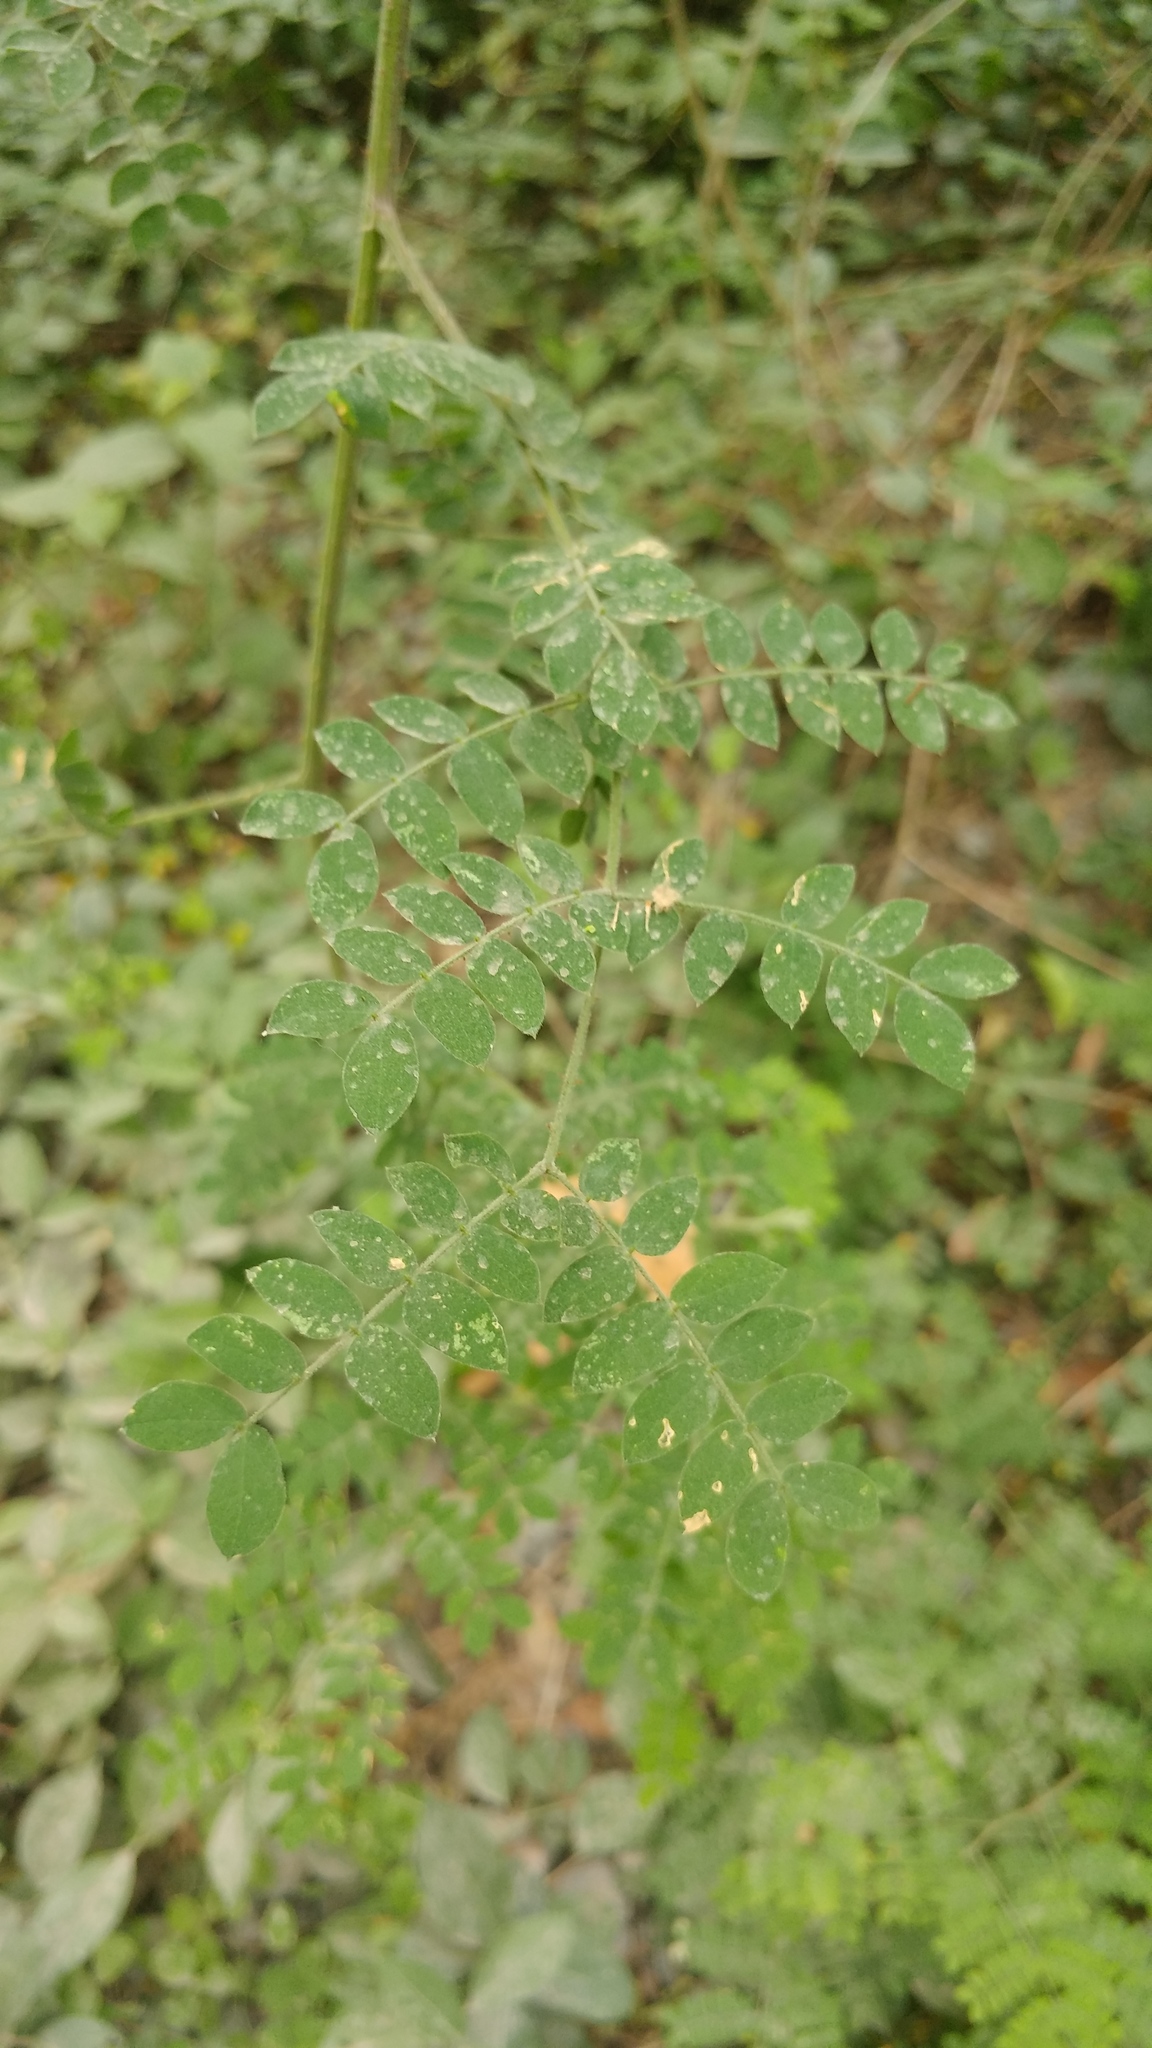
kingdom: Plantae
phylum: Tracheophyta
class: Magnoliopsida
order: Fabales
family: Fabaceae
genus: Mimosa
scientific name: Mimosa malacophylla
